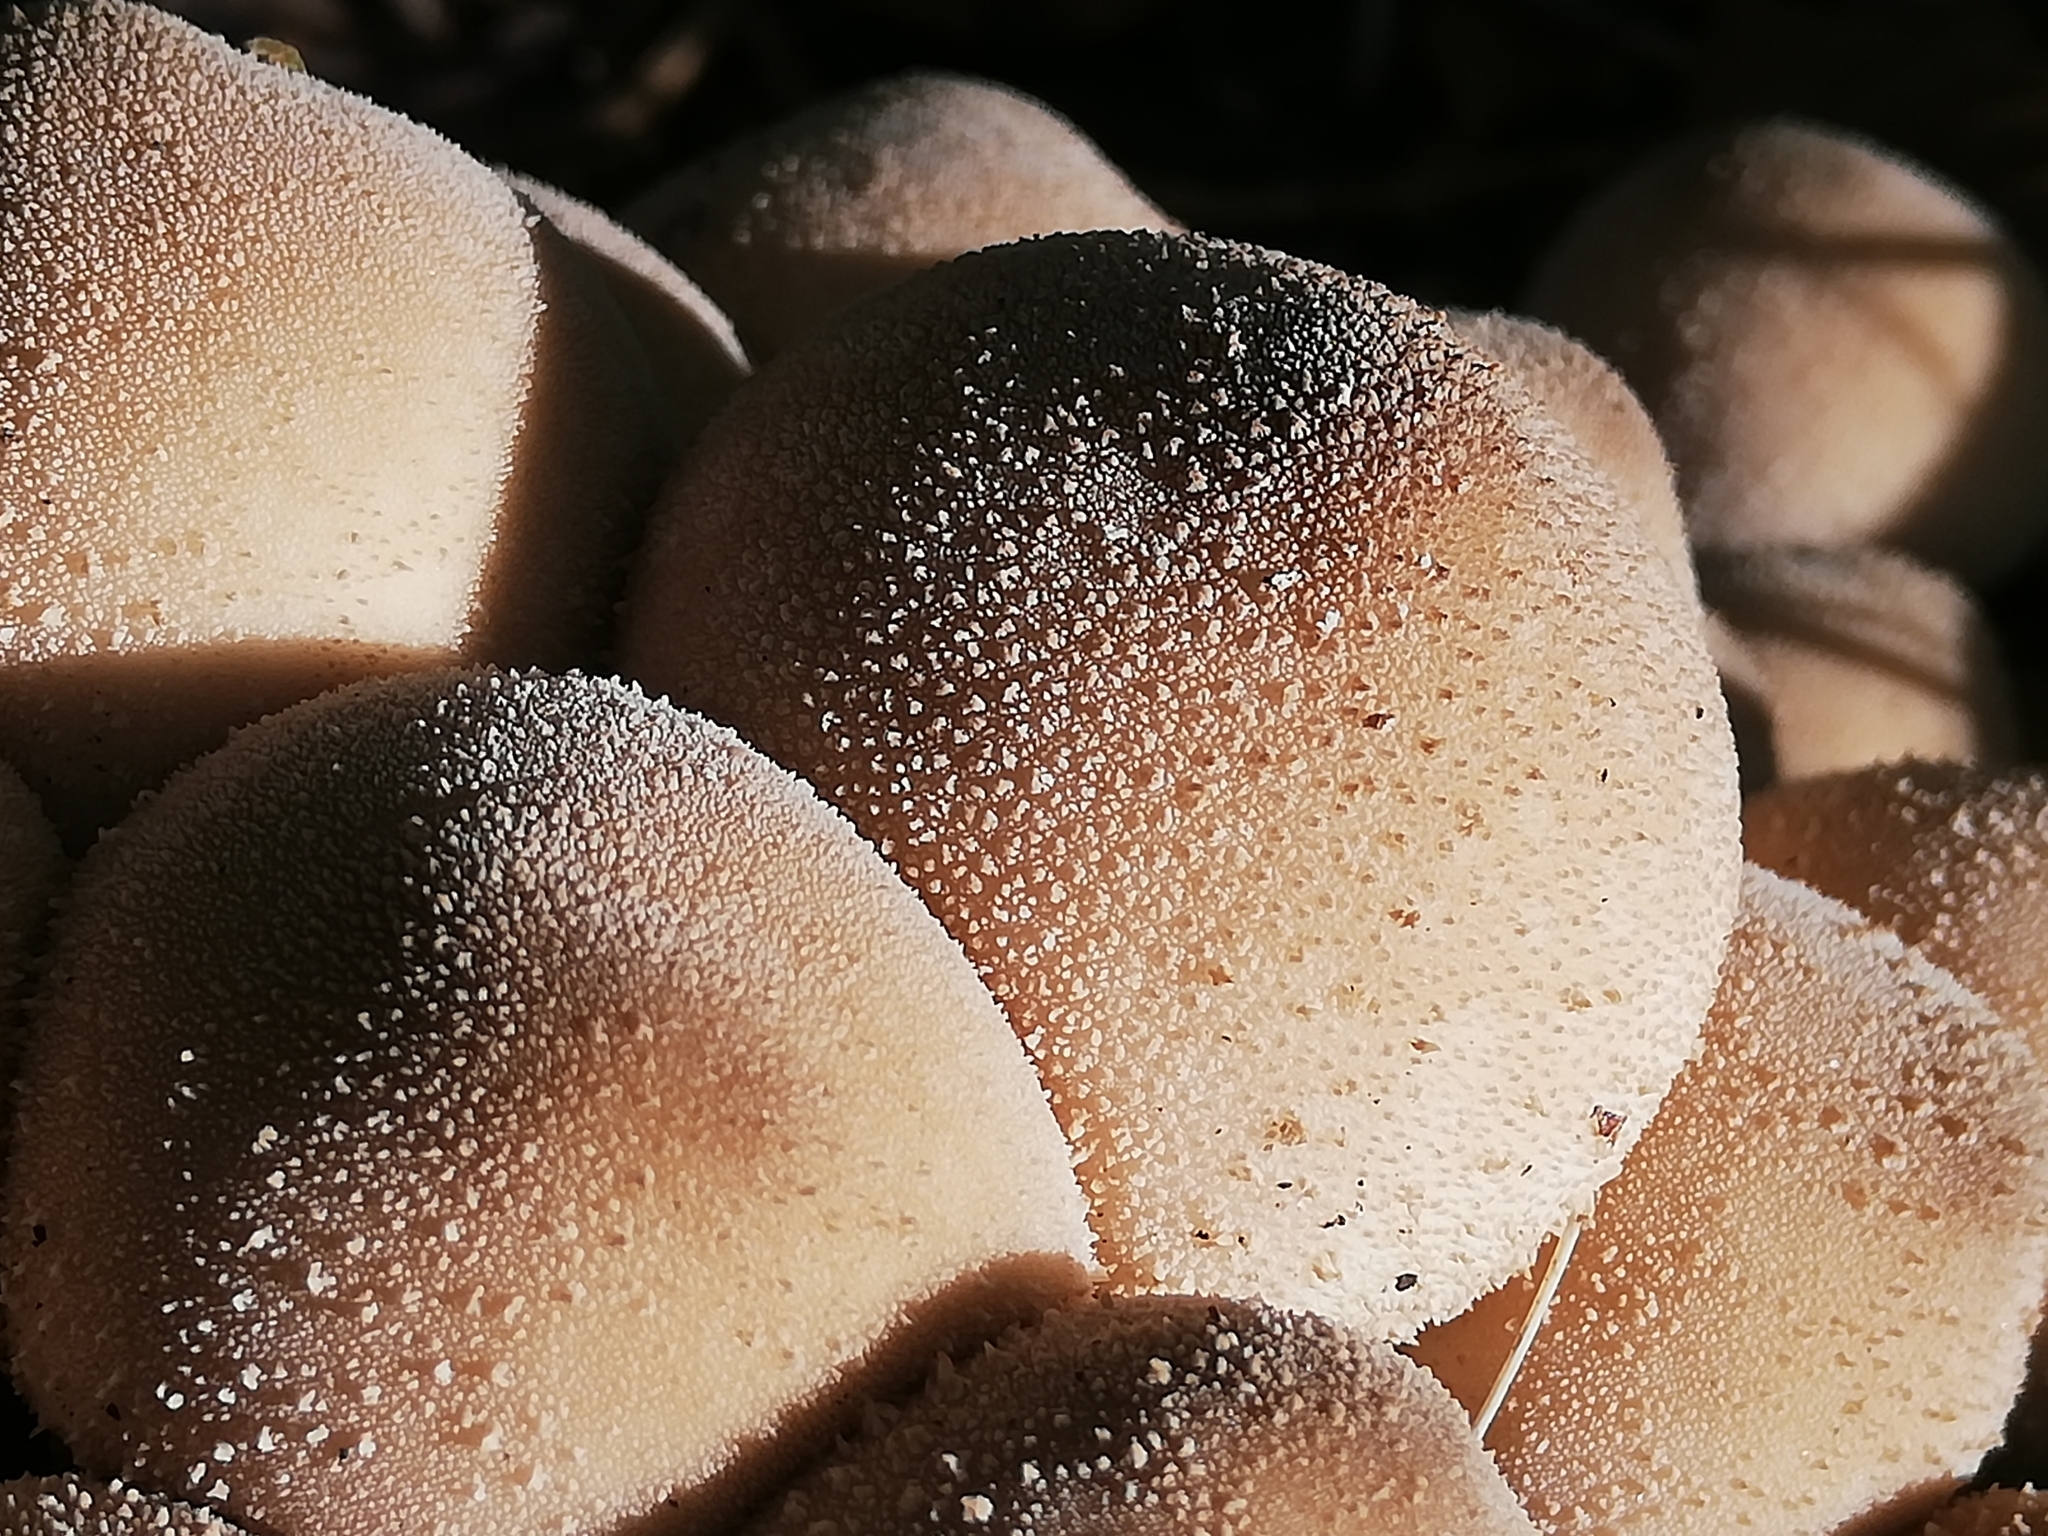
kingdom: Fungi
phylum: Basidiomycota
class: Agaricomycetes
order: Agaricales
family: Lycoperdaceae
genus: Apioperdon
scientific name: Apioperdon pyriforme
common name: Pear-shaped puffball
